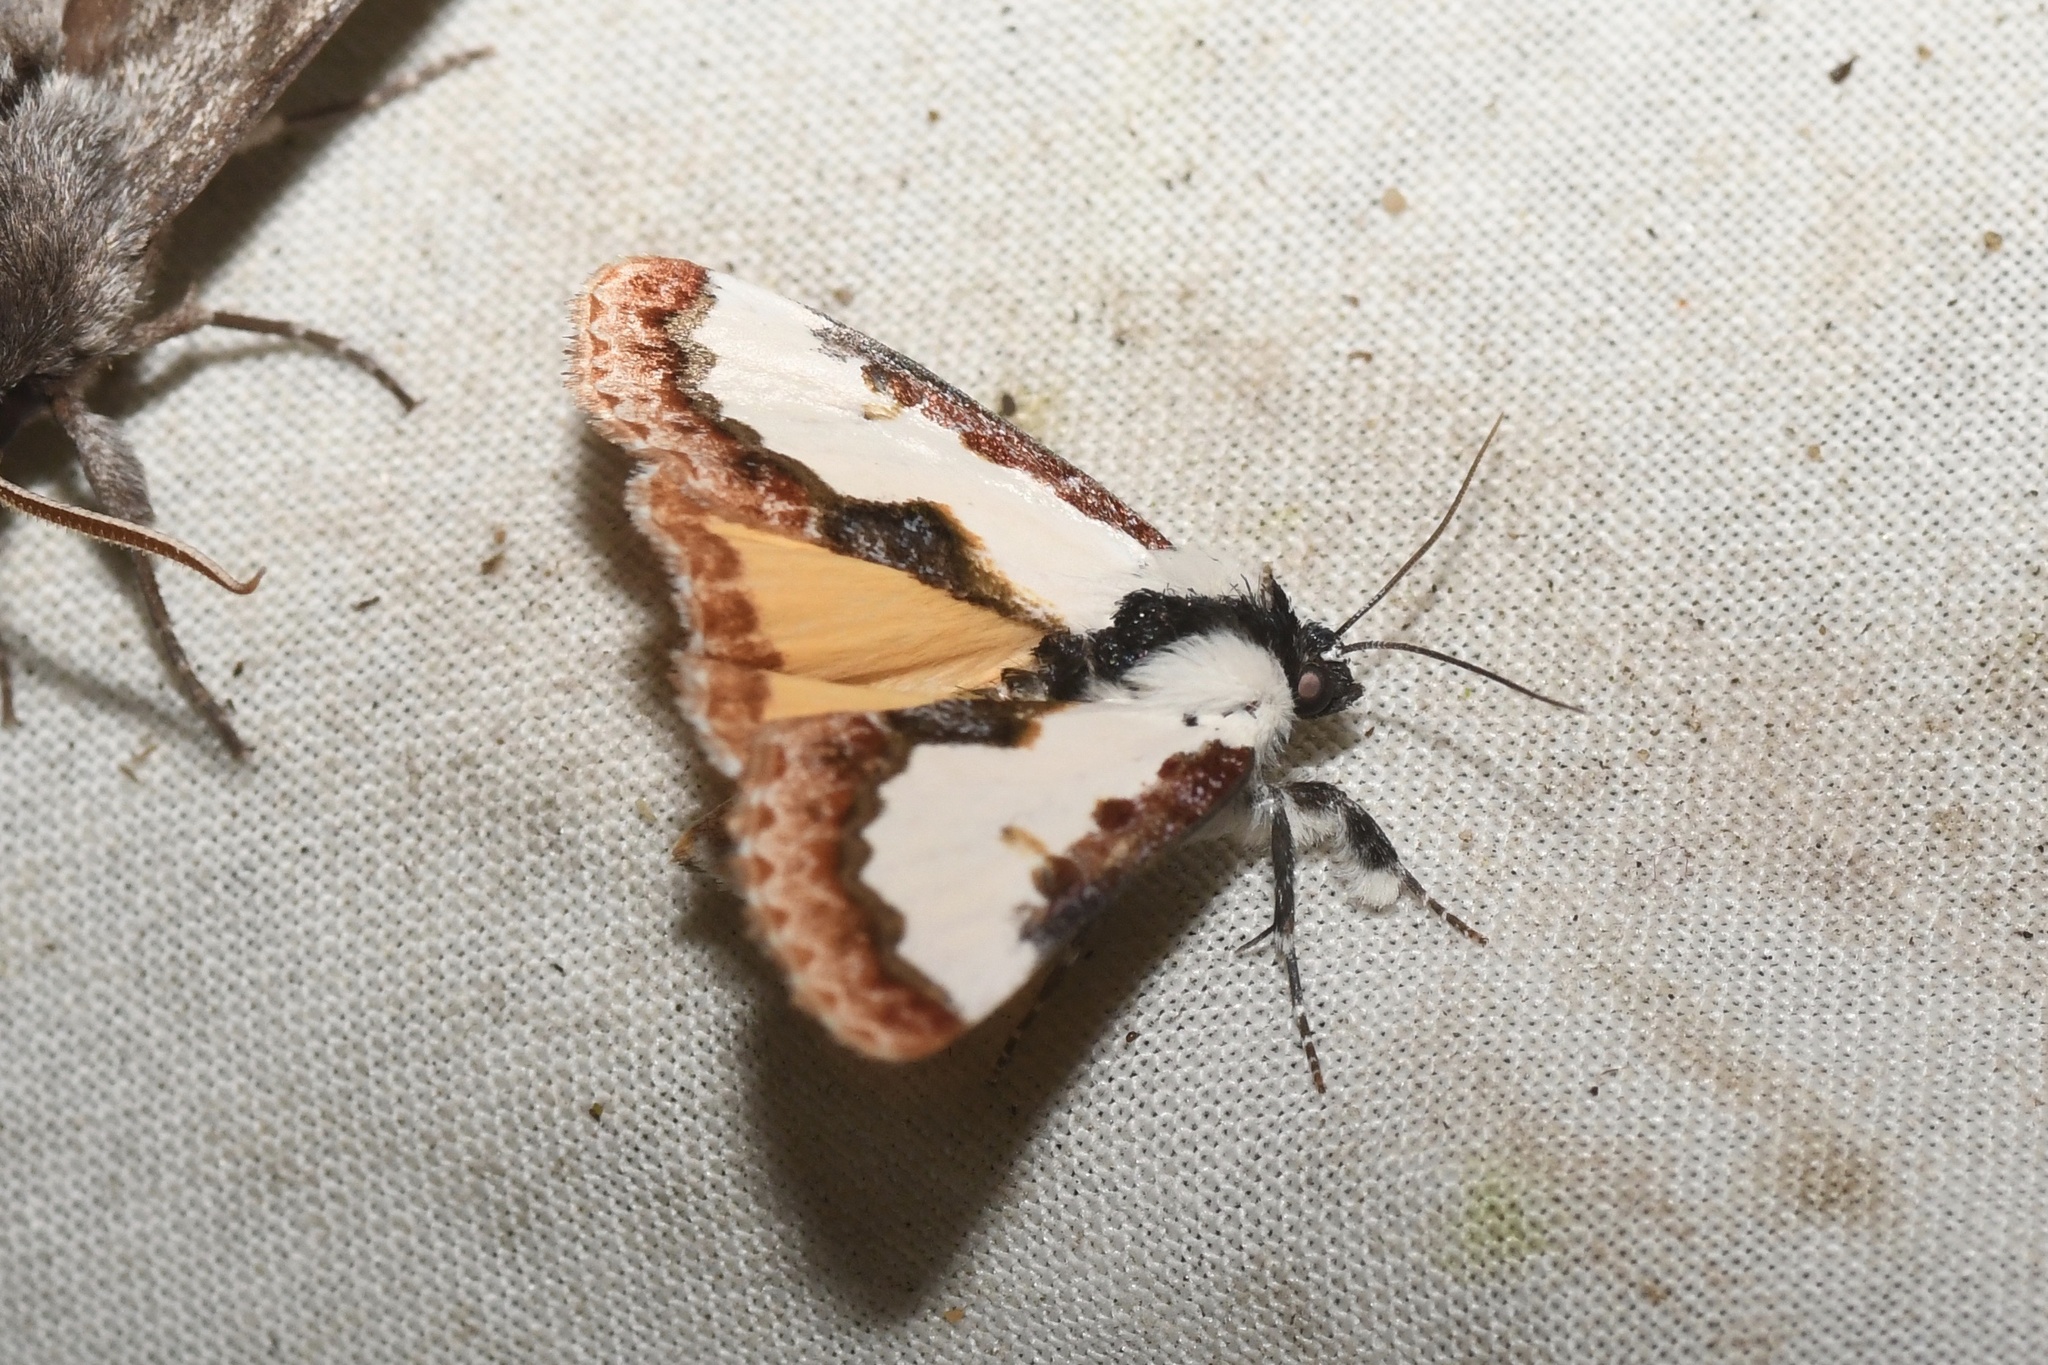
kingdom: Animalia
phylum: Arthropoda
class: Insecta
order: Lepidoptera
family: Noctuidae
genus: Eudryas
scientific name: Eudryas unio
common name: Pearly wood-nymph
